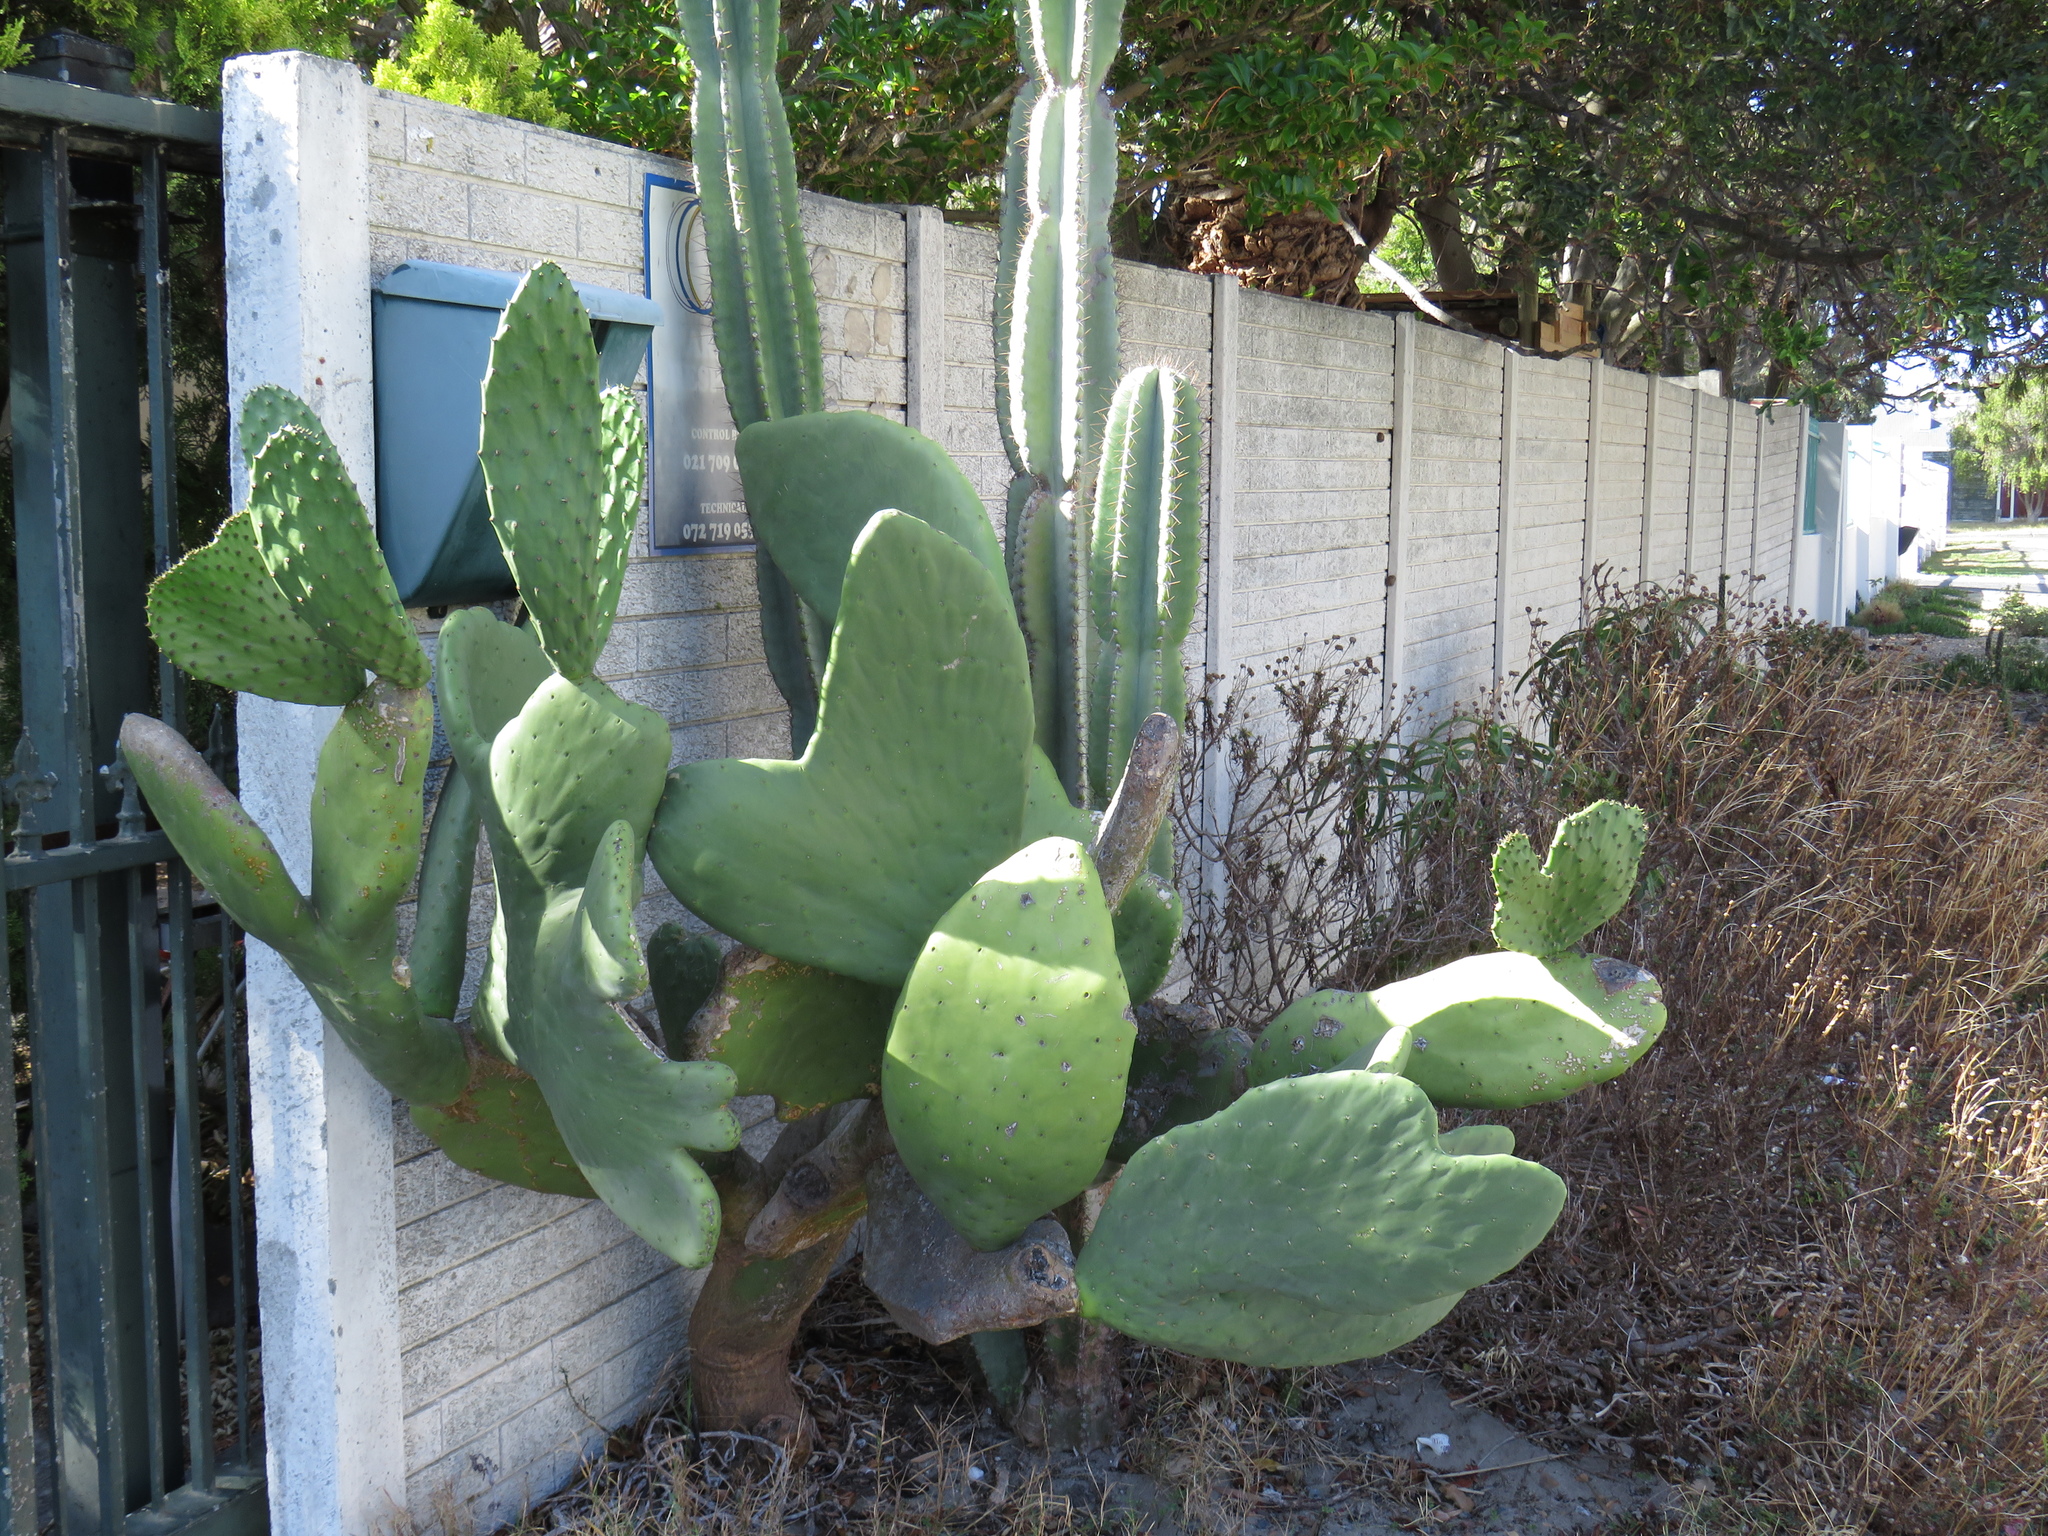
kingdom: Plantae
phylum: Tracheophyta
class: Magnoliopsida
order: Caryophyllales
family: Cactaceae
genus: Opuntia
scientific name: Opuntia ficus-indica
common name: Barbary fig
